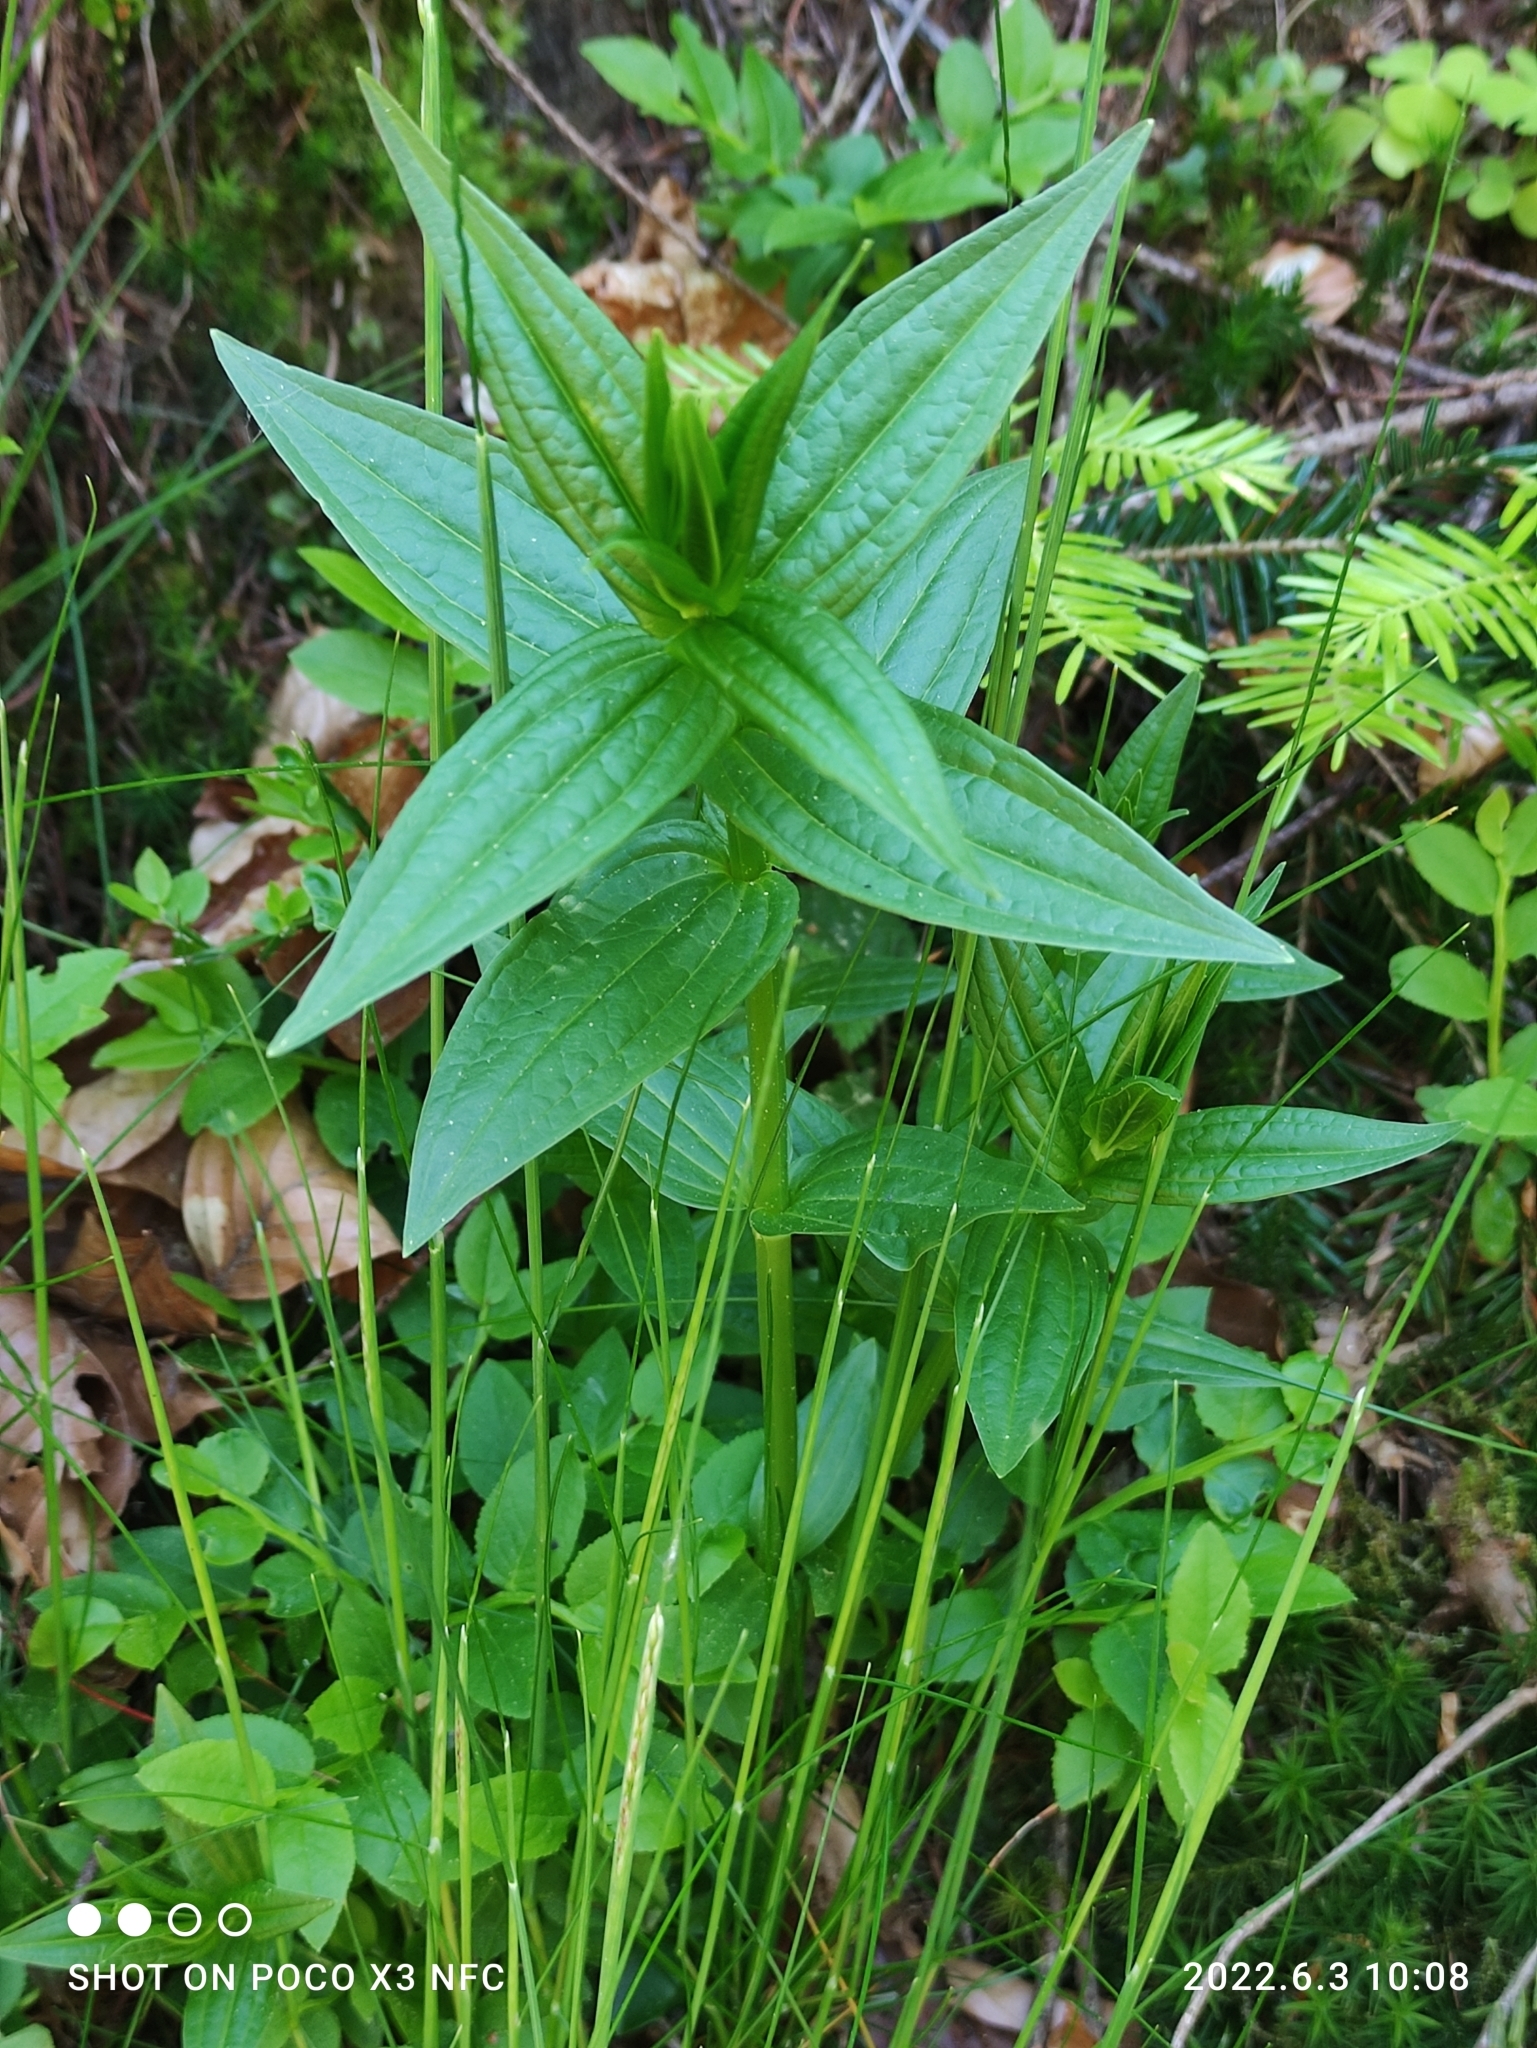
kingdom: Plantae
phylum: Tracheophyta
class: Magnoliopsida
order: Gentianales
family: Gentianaceae
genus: Gentiana
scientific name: Gentiana asclepiadea
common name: Willow gentian
